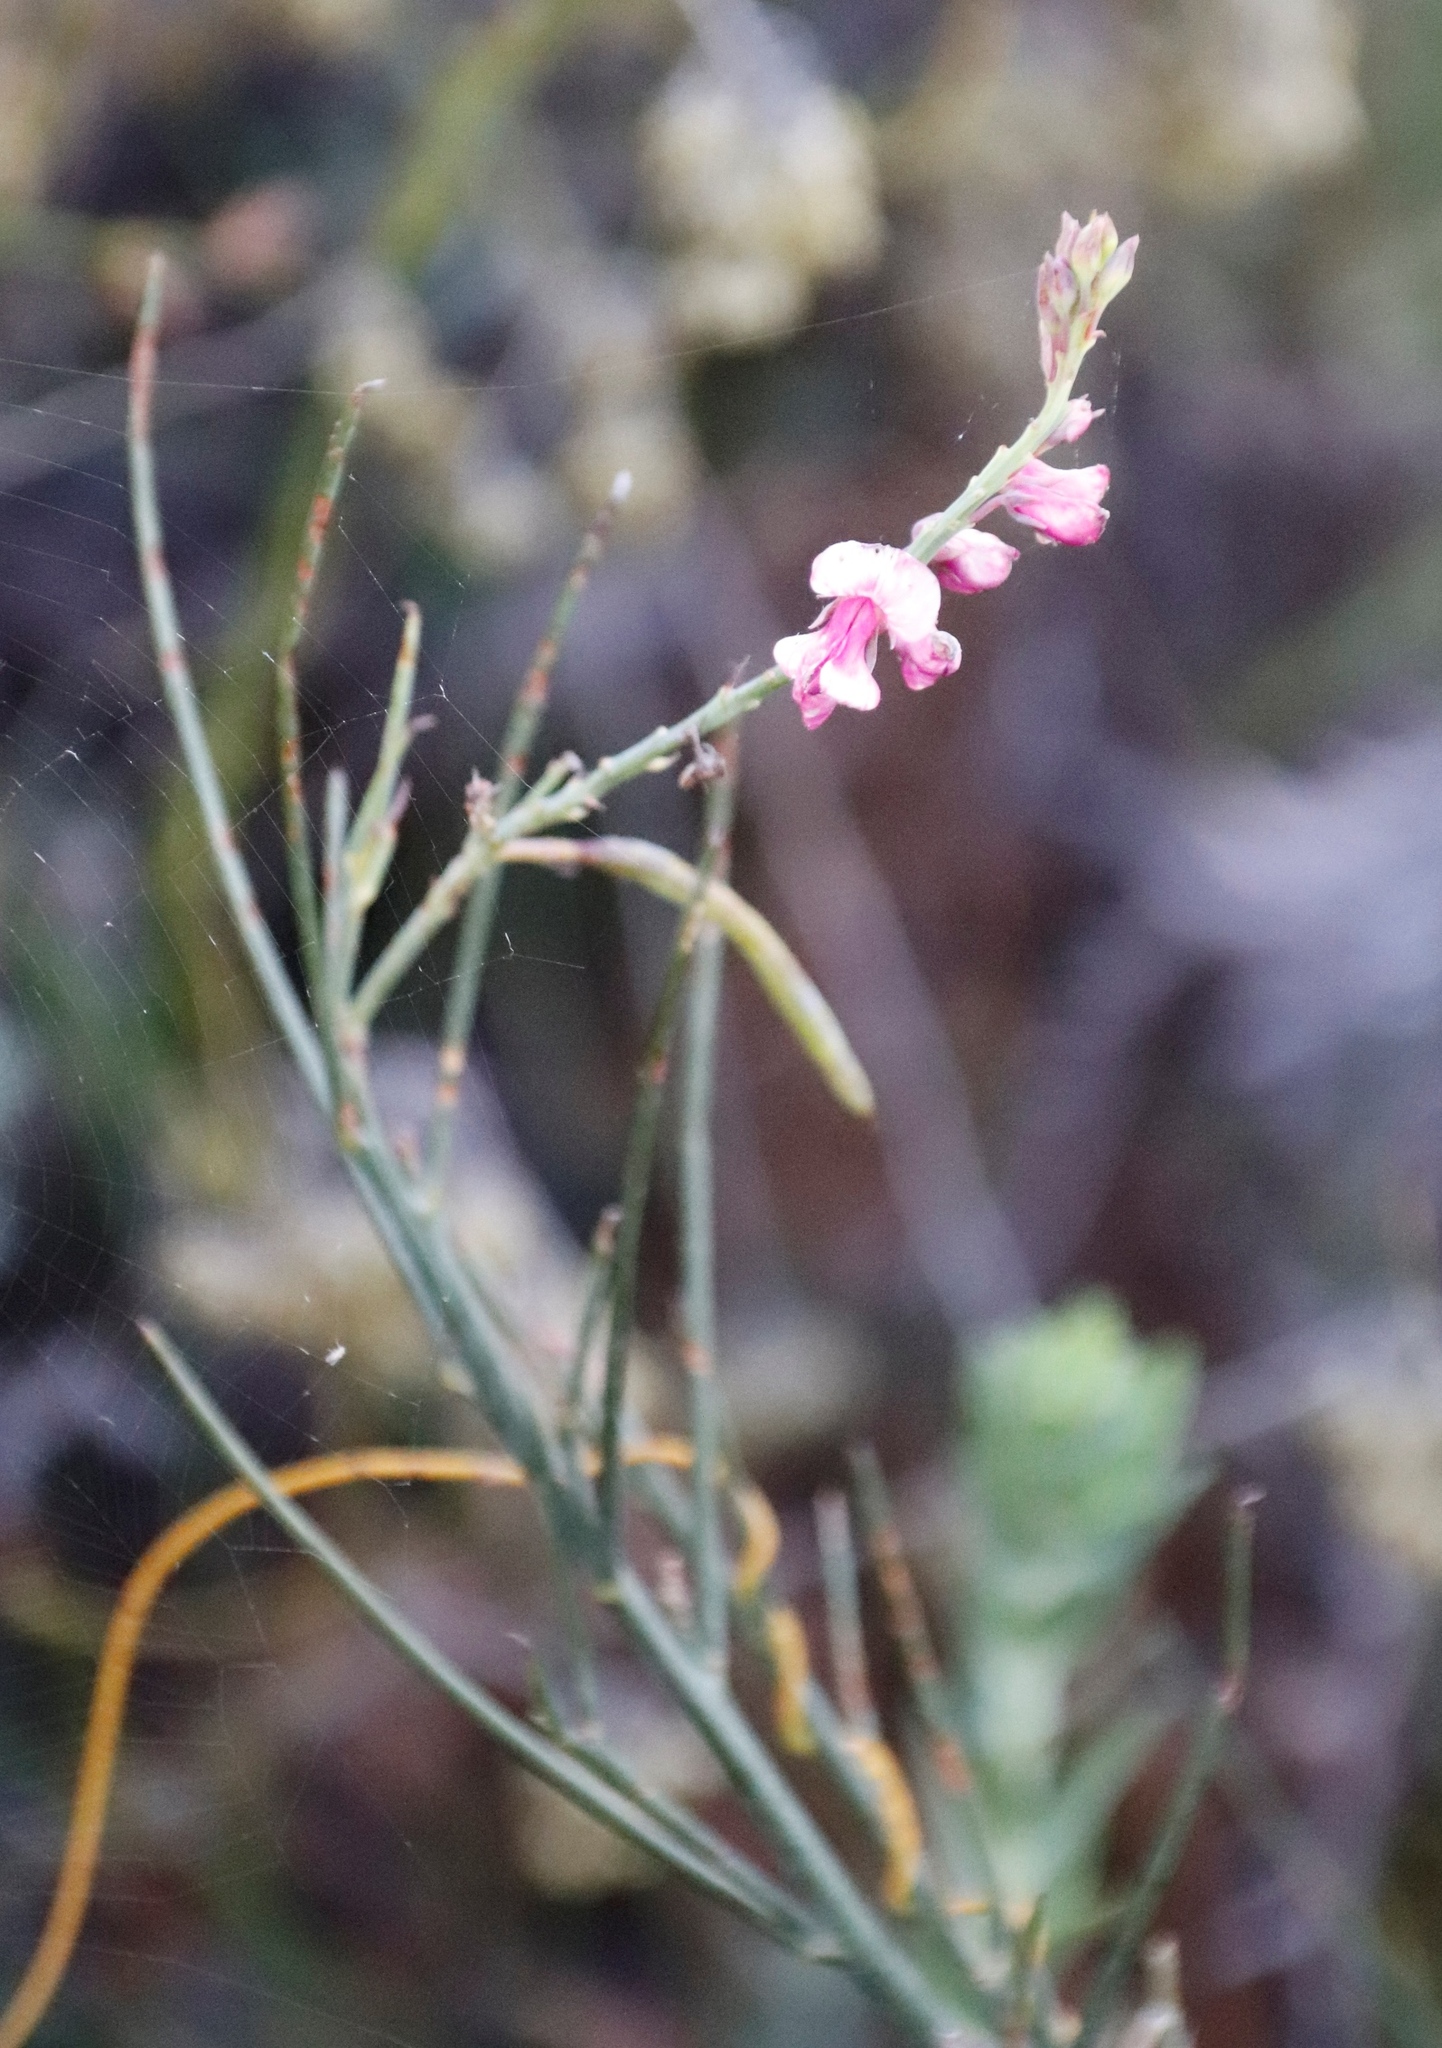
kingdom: Plantae
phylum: Tracheophyta
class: Magnoliopsida
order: Fabales
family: Fabaceae
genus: Indigofera
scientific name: Indigofera filifolia
